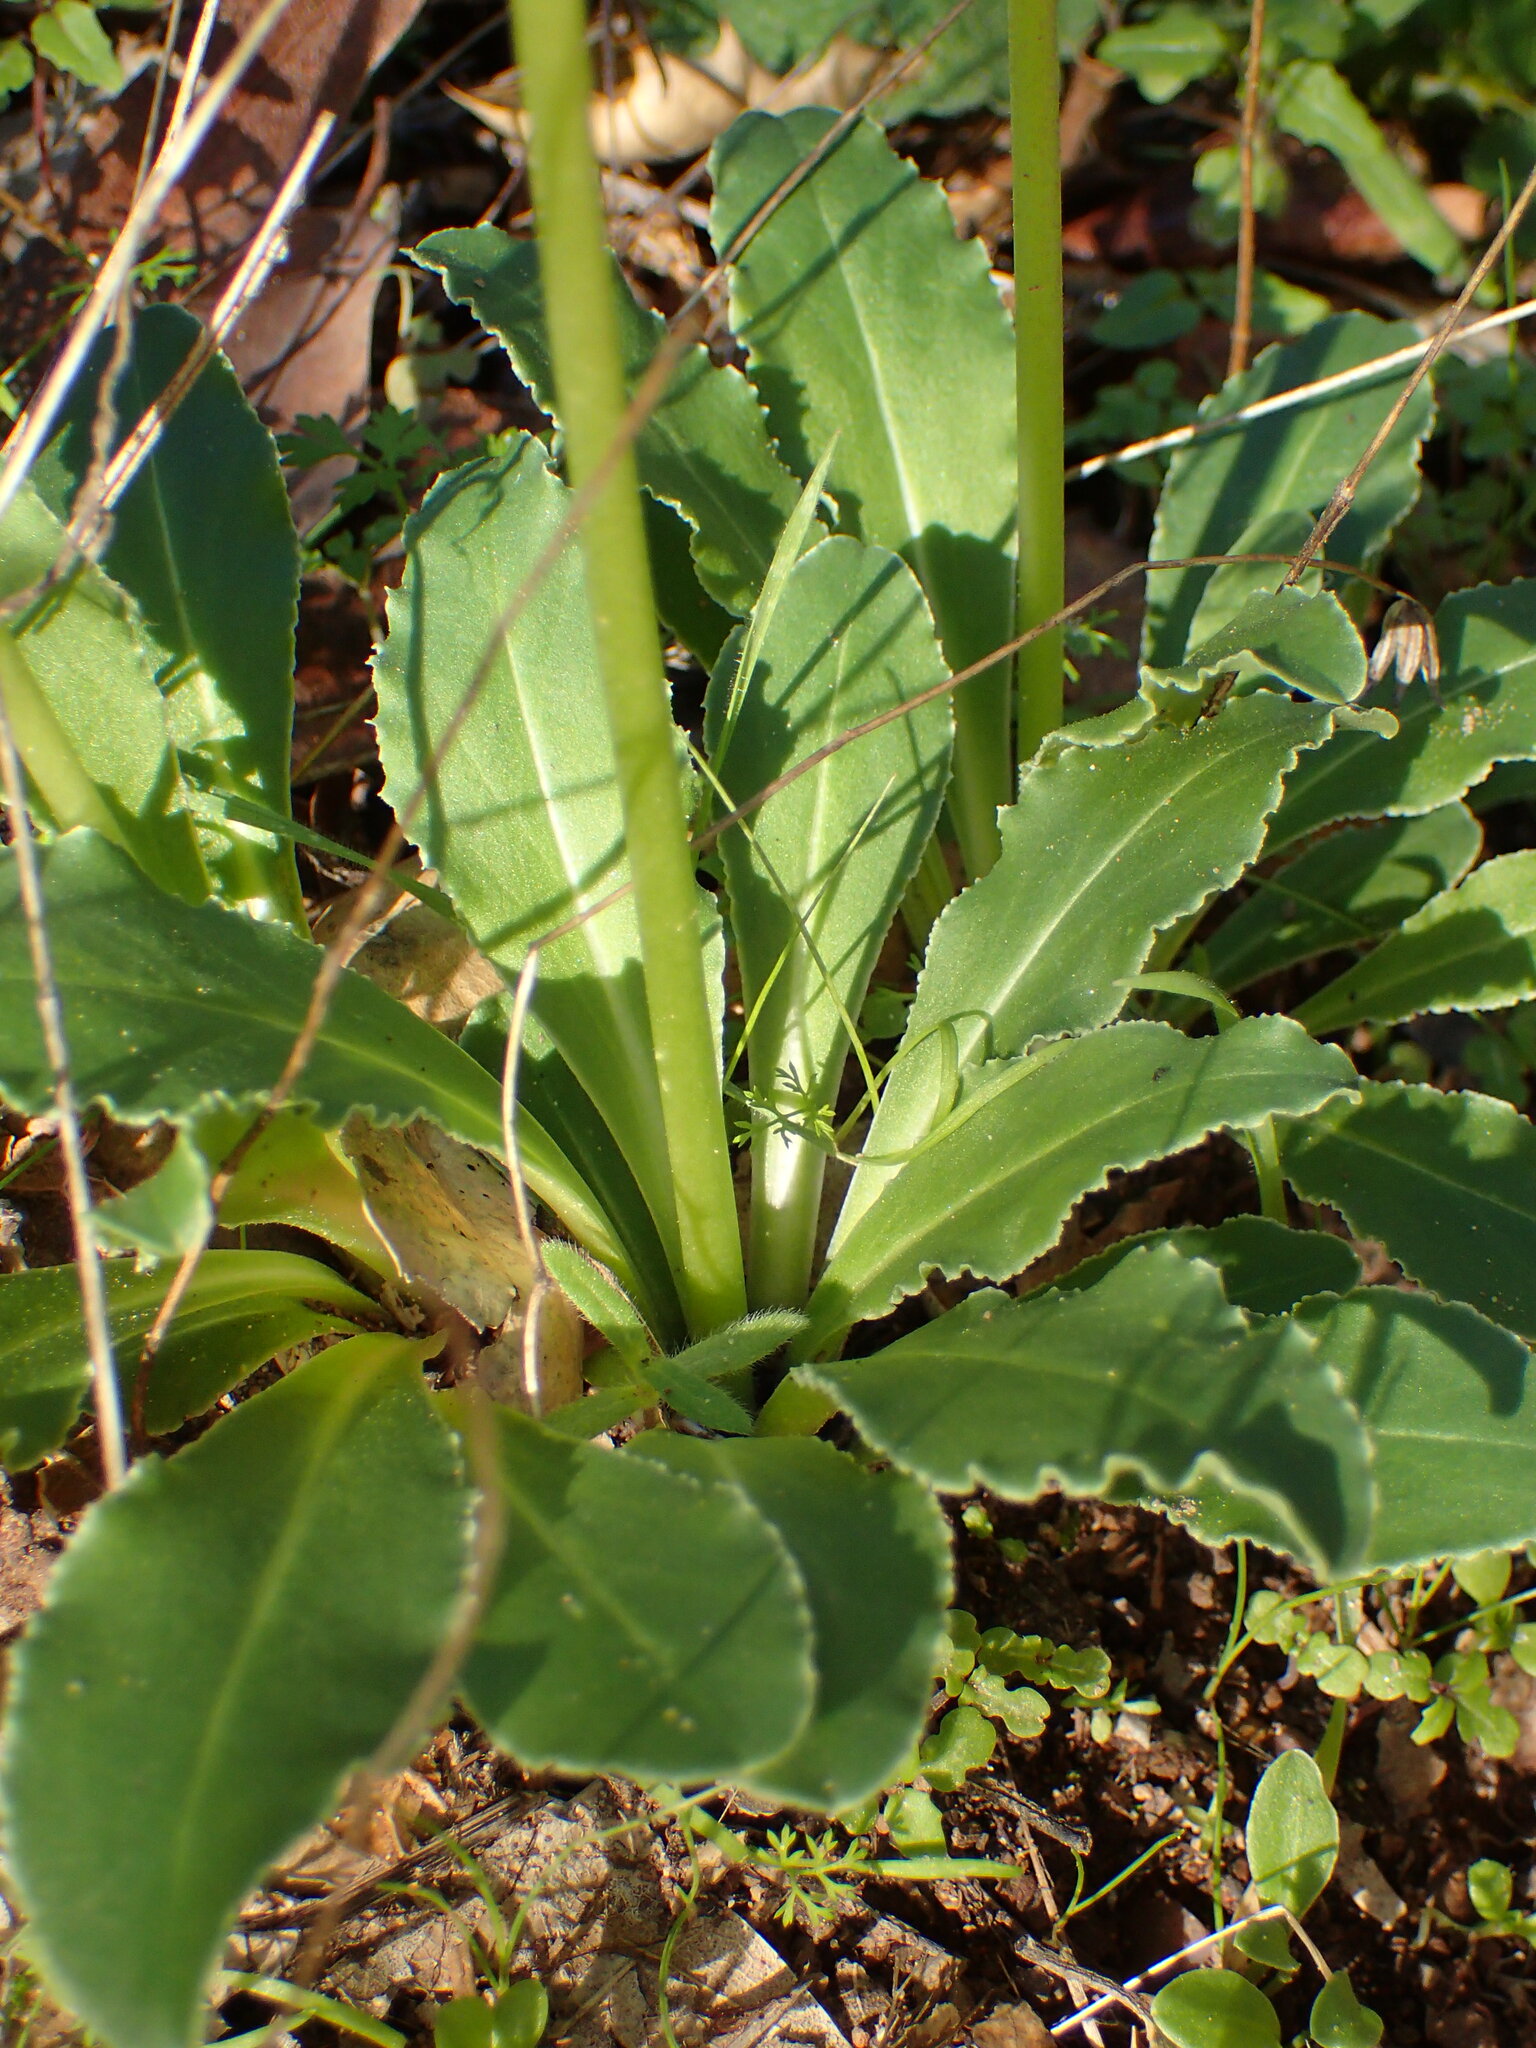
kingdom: Plantae
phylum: Tracheophyta
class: Magnoliopsida
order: Ericales
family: Primulaceae
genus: Dodecatheon
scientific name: Dodecatheon clevelandii
